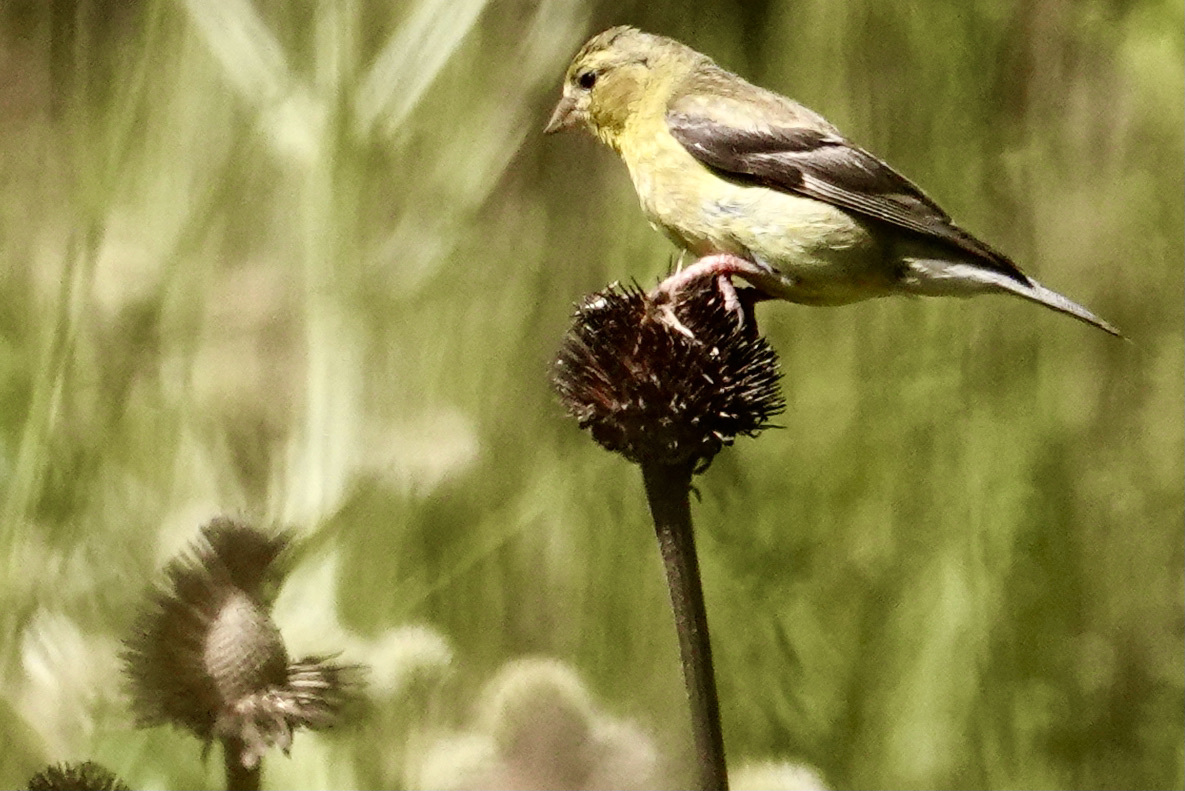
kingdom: Animalia
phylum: Chordata
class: Aves
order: Passeriformes
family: Fringillidae
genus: Spinus
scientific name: Spinus tristis
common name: American goldfinch
